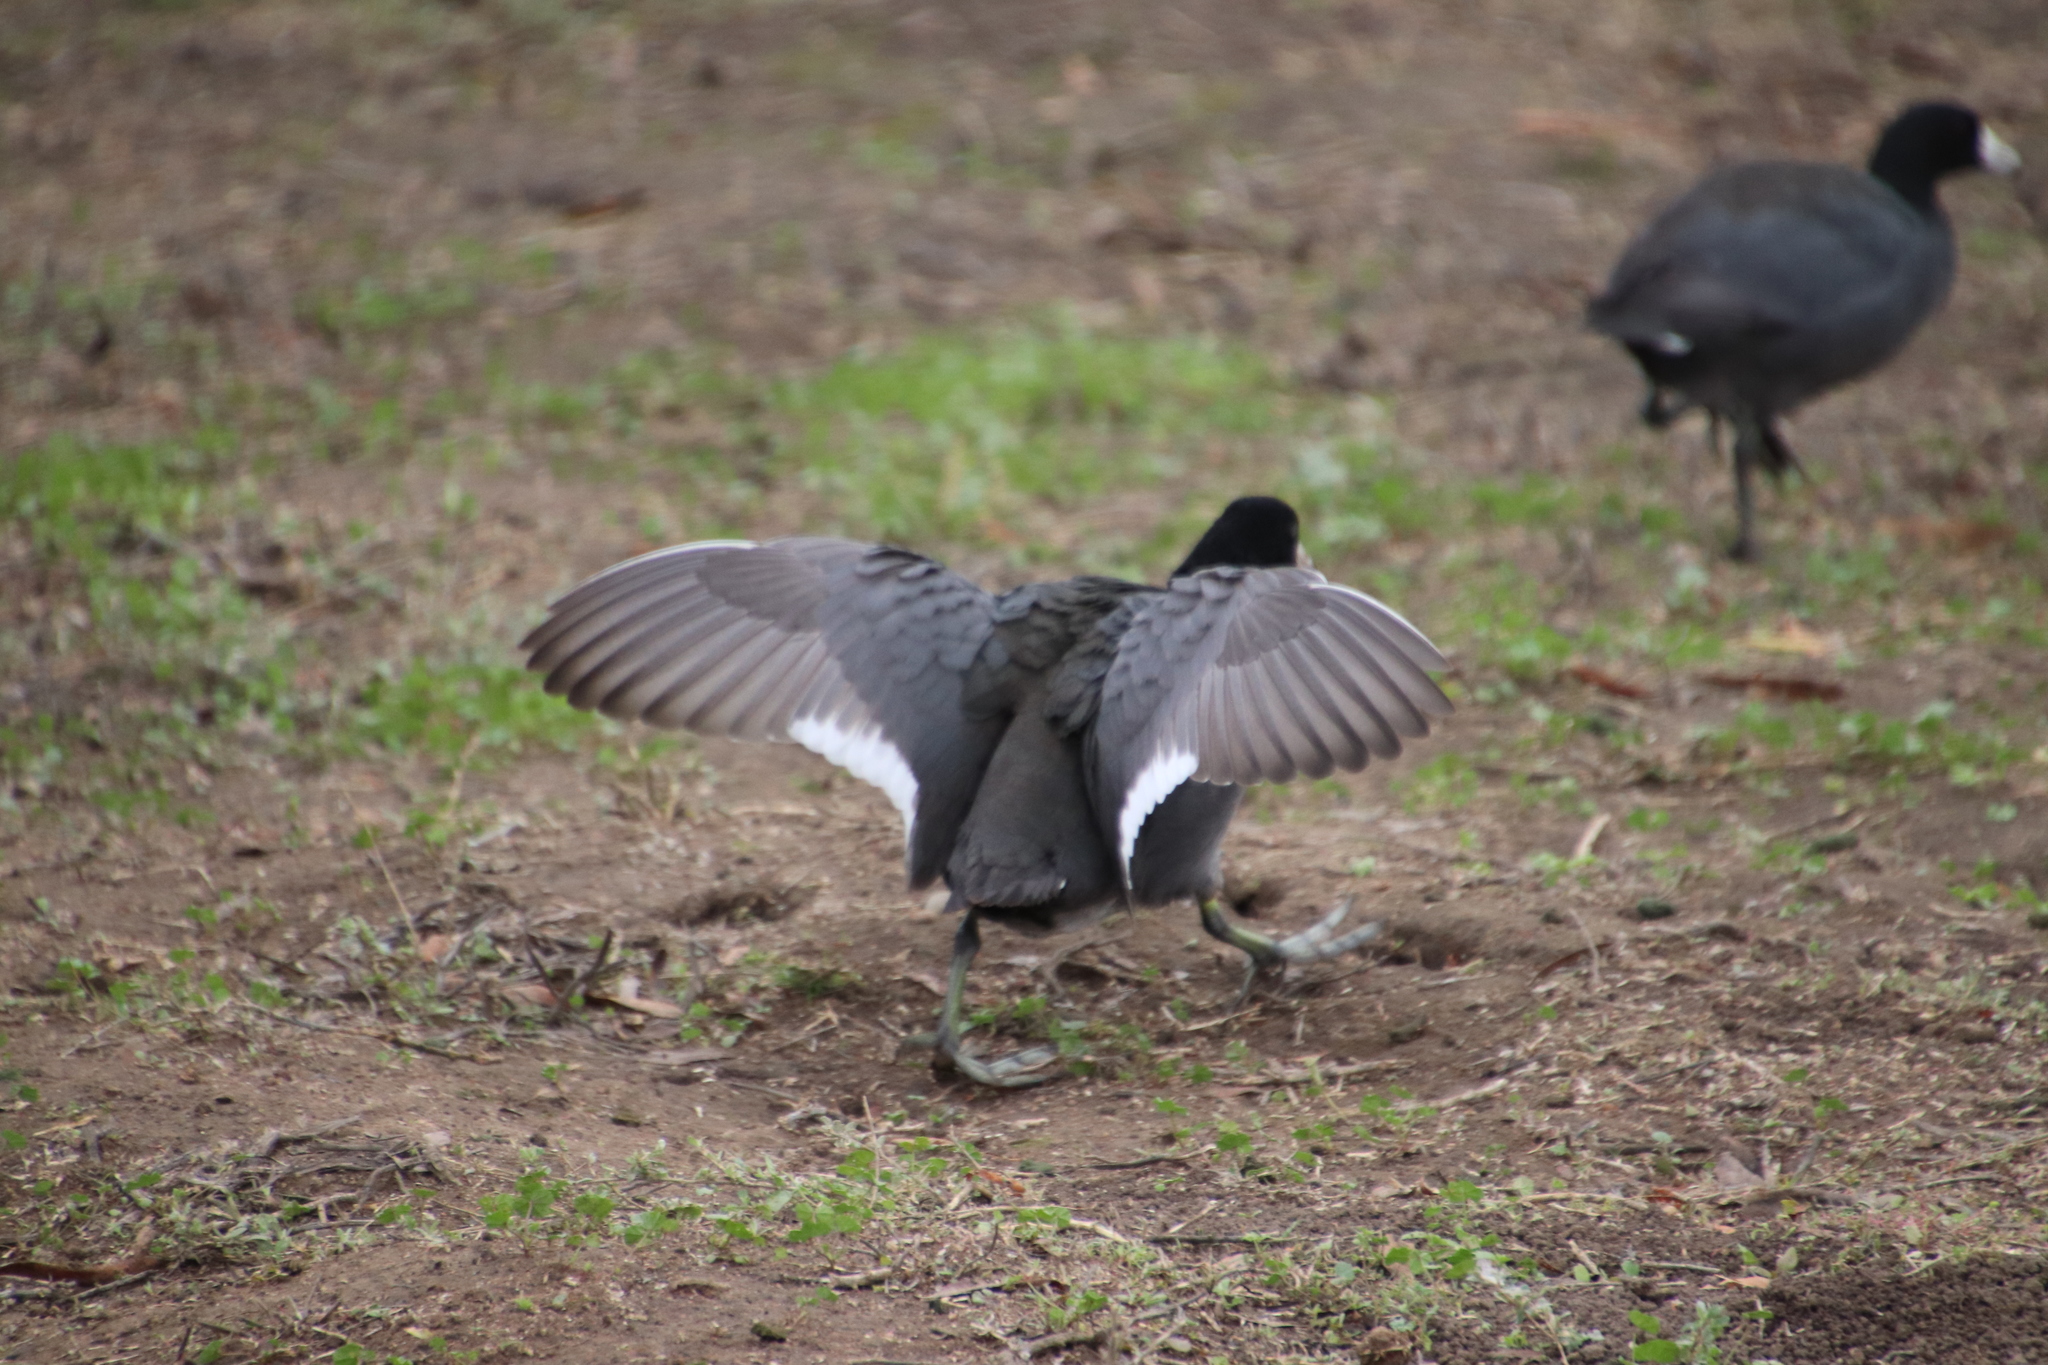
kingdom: Animalia
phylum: Chordata
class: Aves
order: Gruiformes
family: Rallidae
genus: Fulica
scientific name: Fulica americana
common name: American coot
